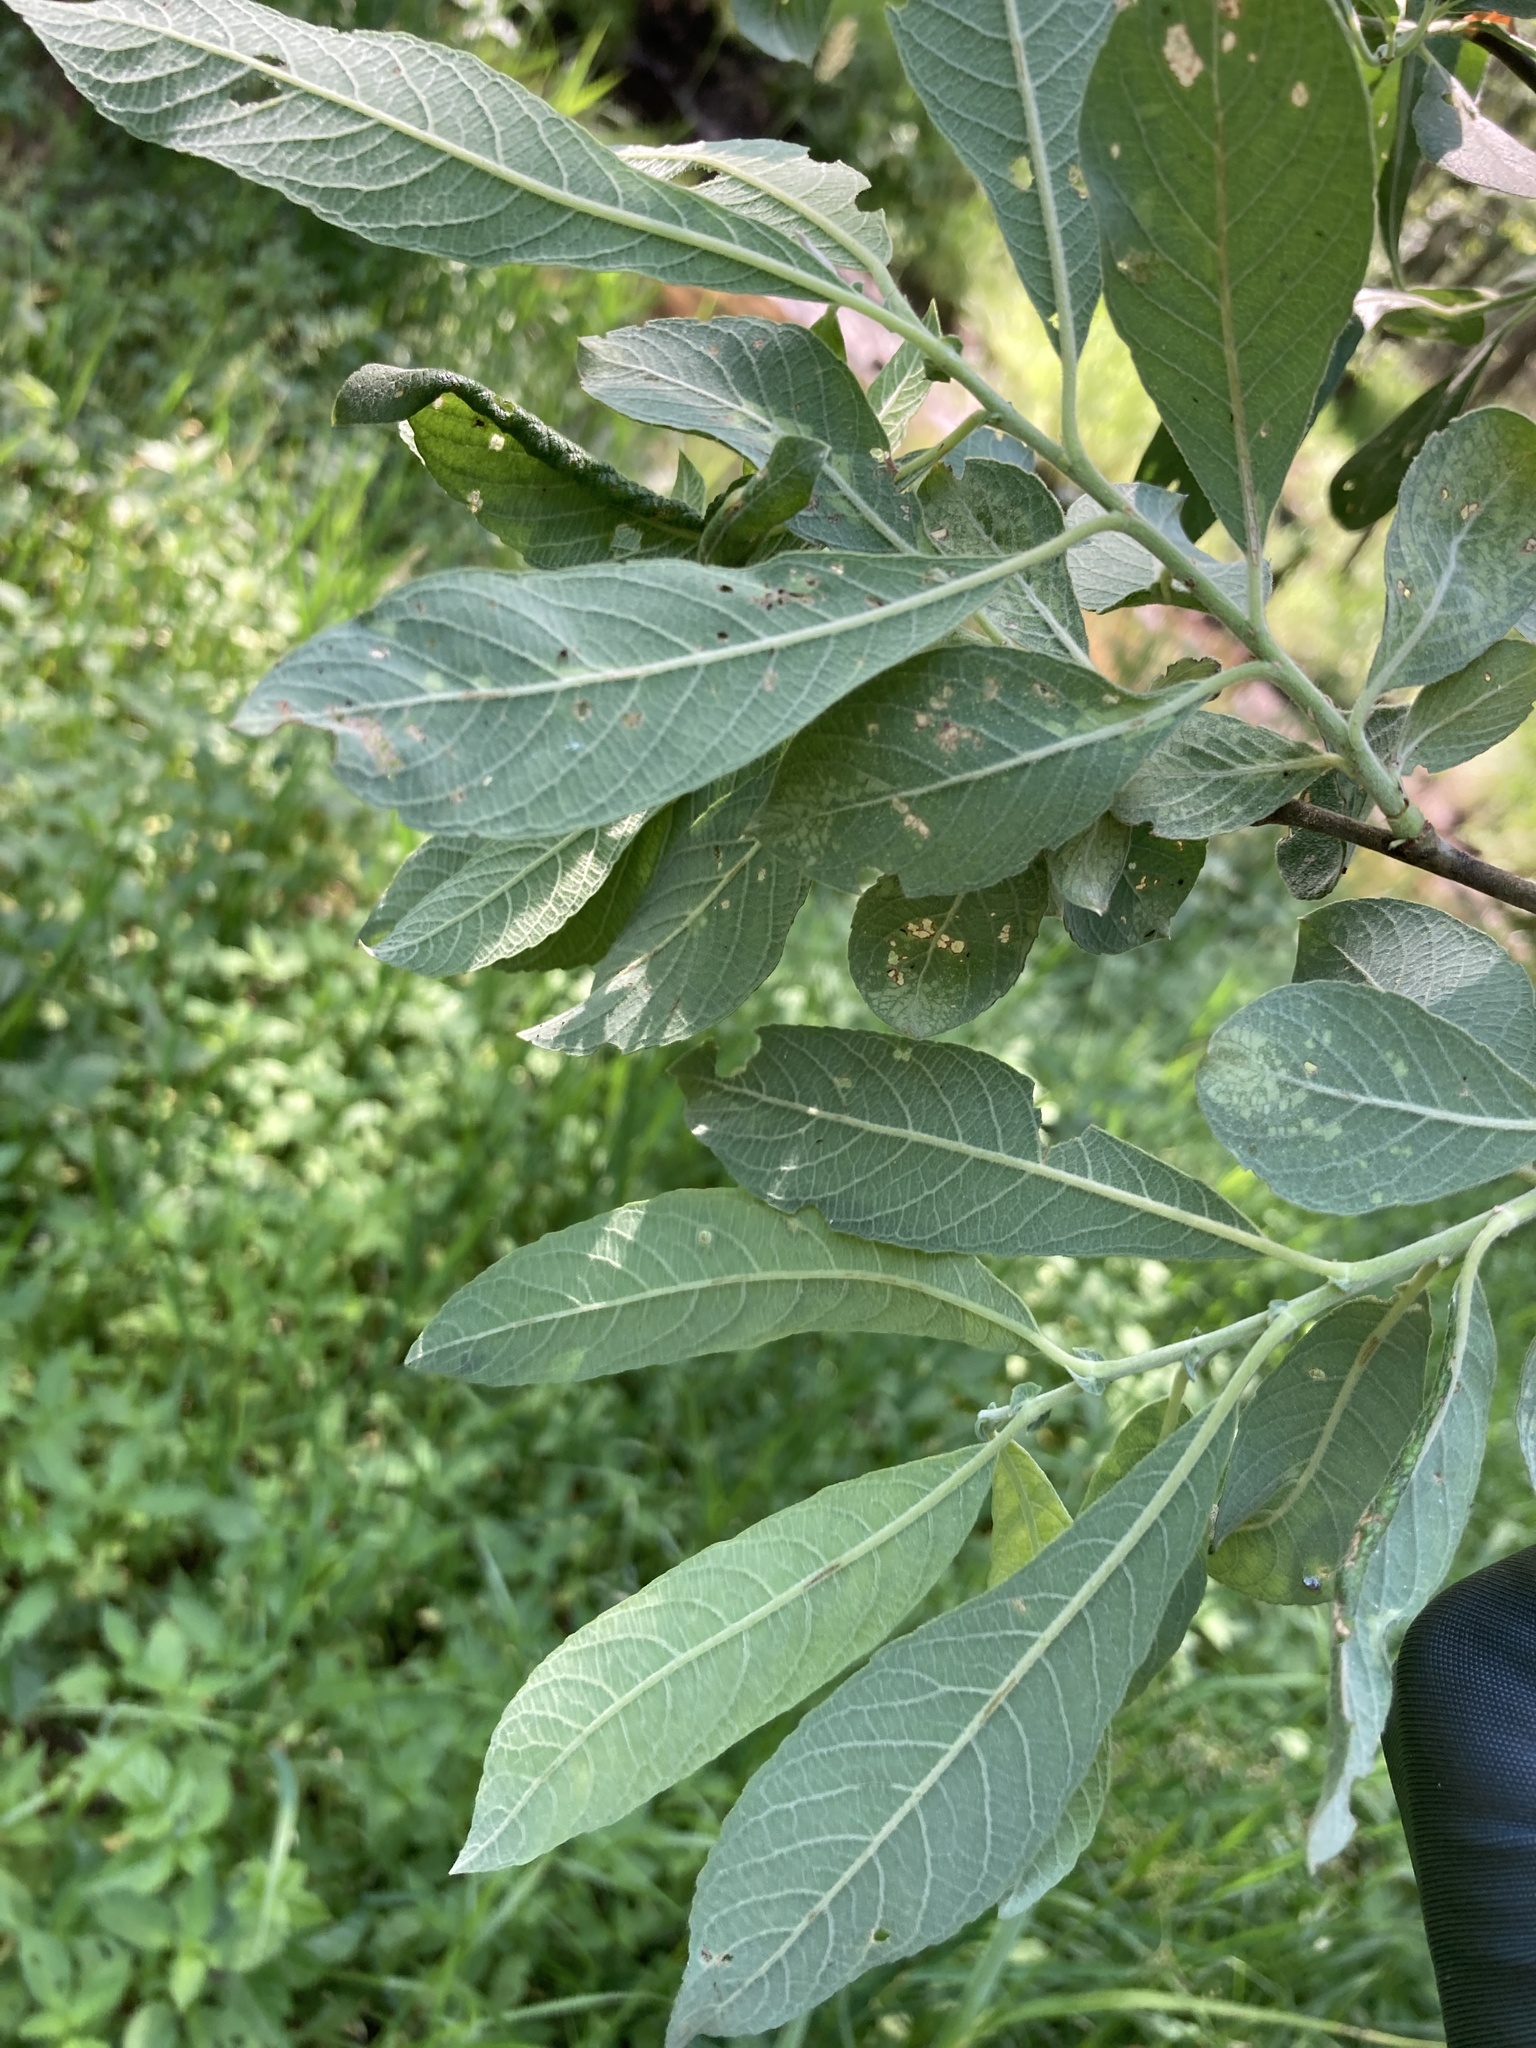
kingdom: Plantae
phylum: Tracheophyta
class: Magnoliopsida
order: Malpighiales
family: Salicaceae
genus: Salix
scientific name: Salix cinerea
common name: Common sallow
